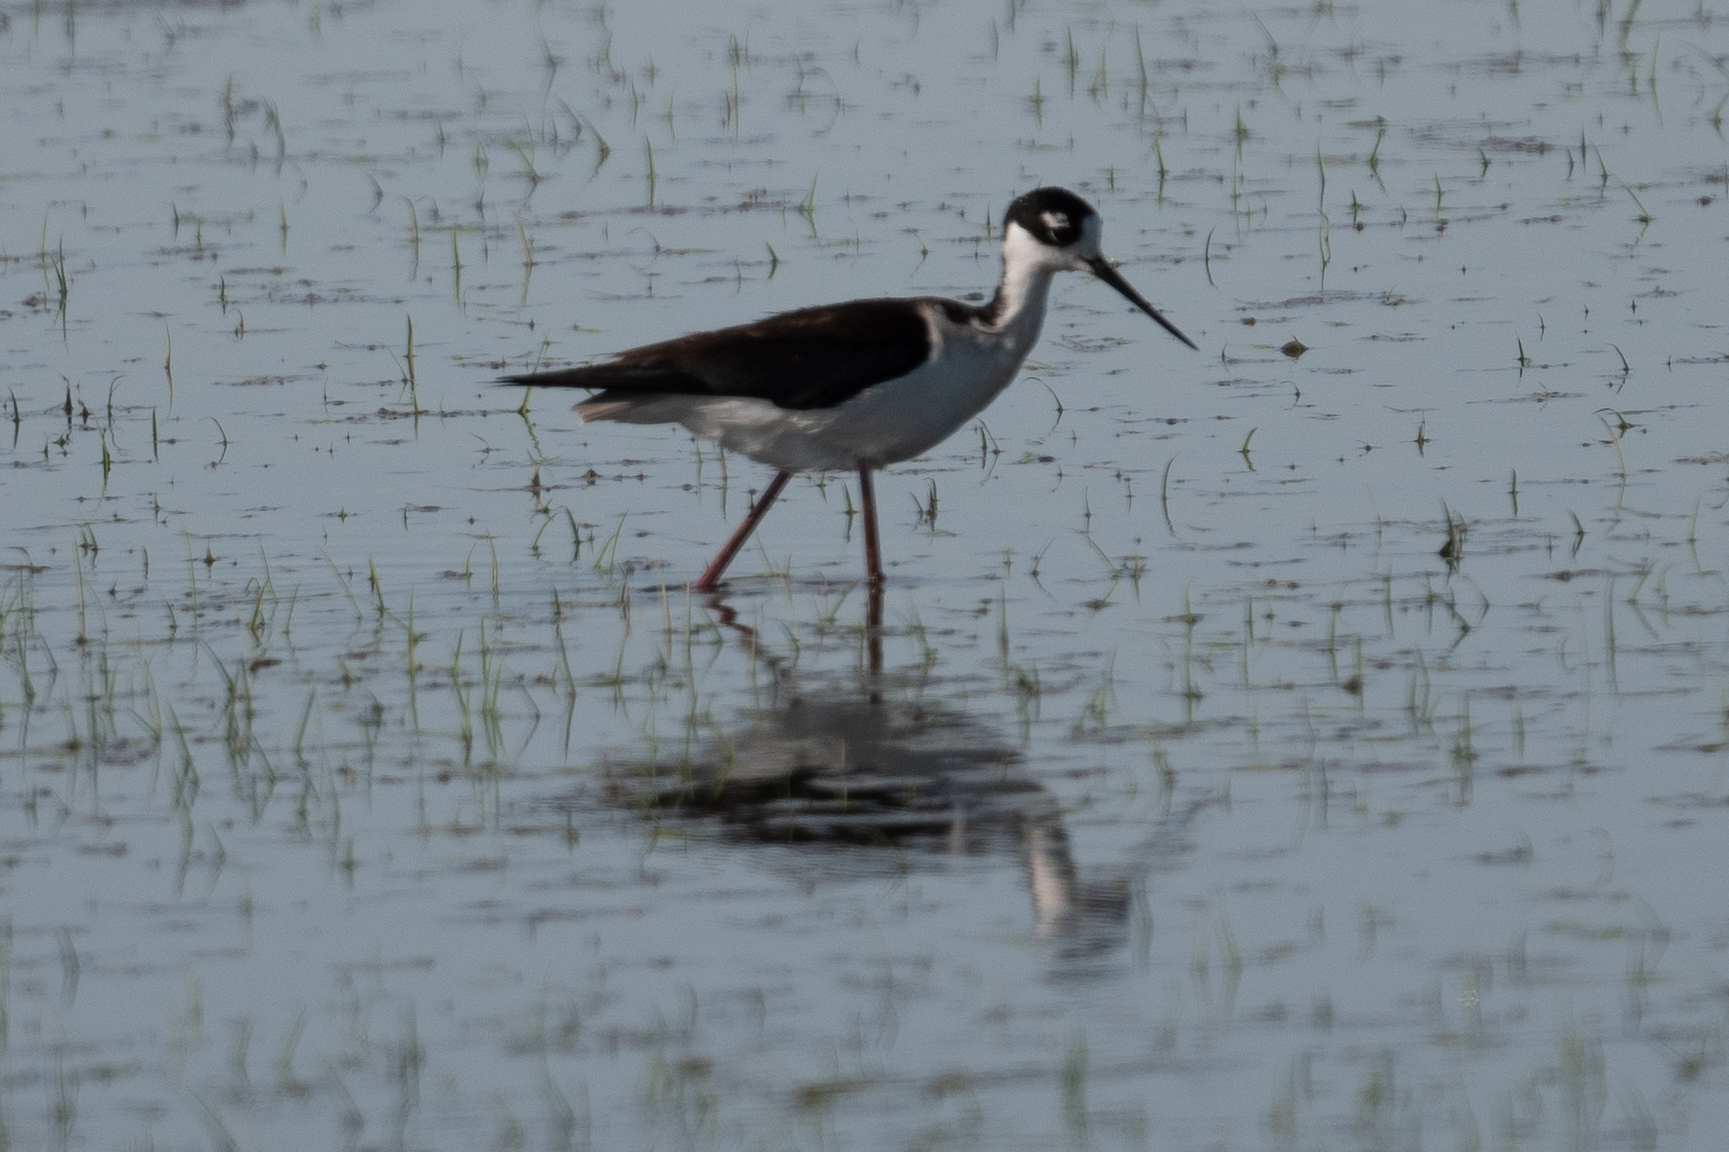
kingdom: Animalia
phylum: Chordata
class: Aves
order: Charadriiformes
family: Recurvirostridae
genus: Himantopus
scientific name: Himantopus mexicanus
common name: Black-necked stilt
